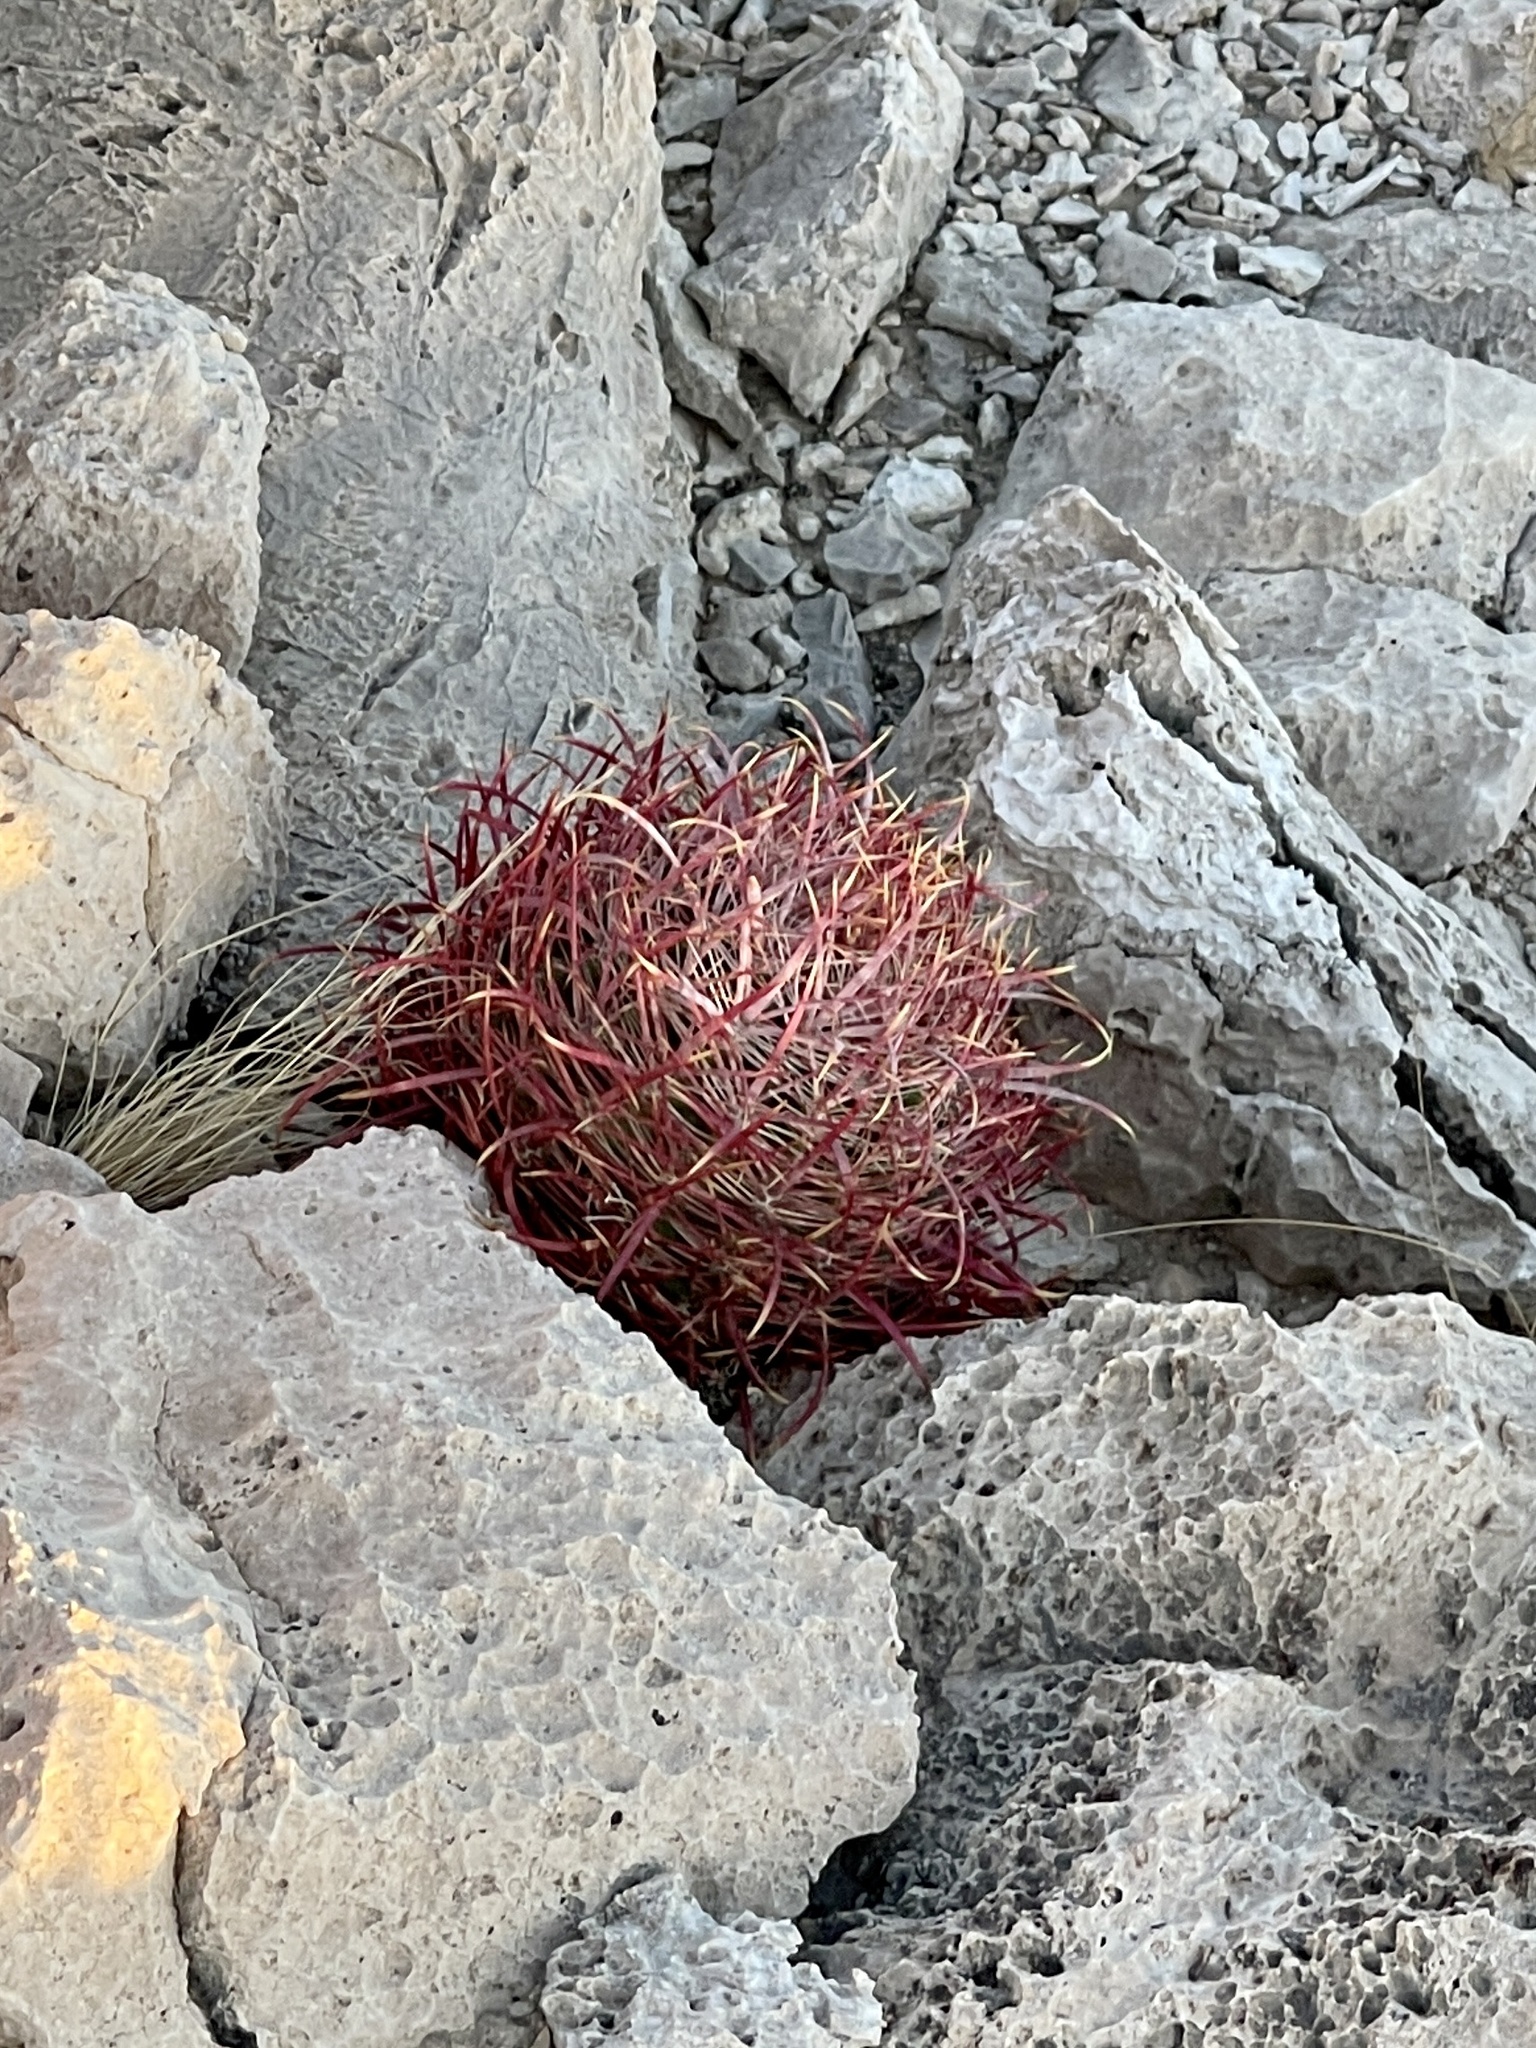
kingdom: Plantae
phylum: Tracheophyta
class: Magnoliopsida
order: Caryophyllales
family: Cactaceae
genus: Ferocactus
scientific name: Ferocactus cylindraceus
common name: California barrel cactus
